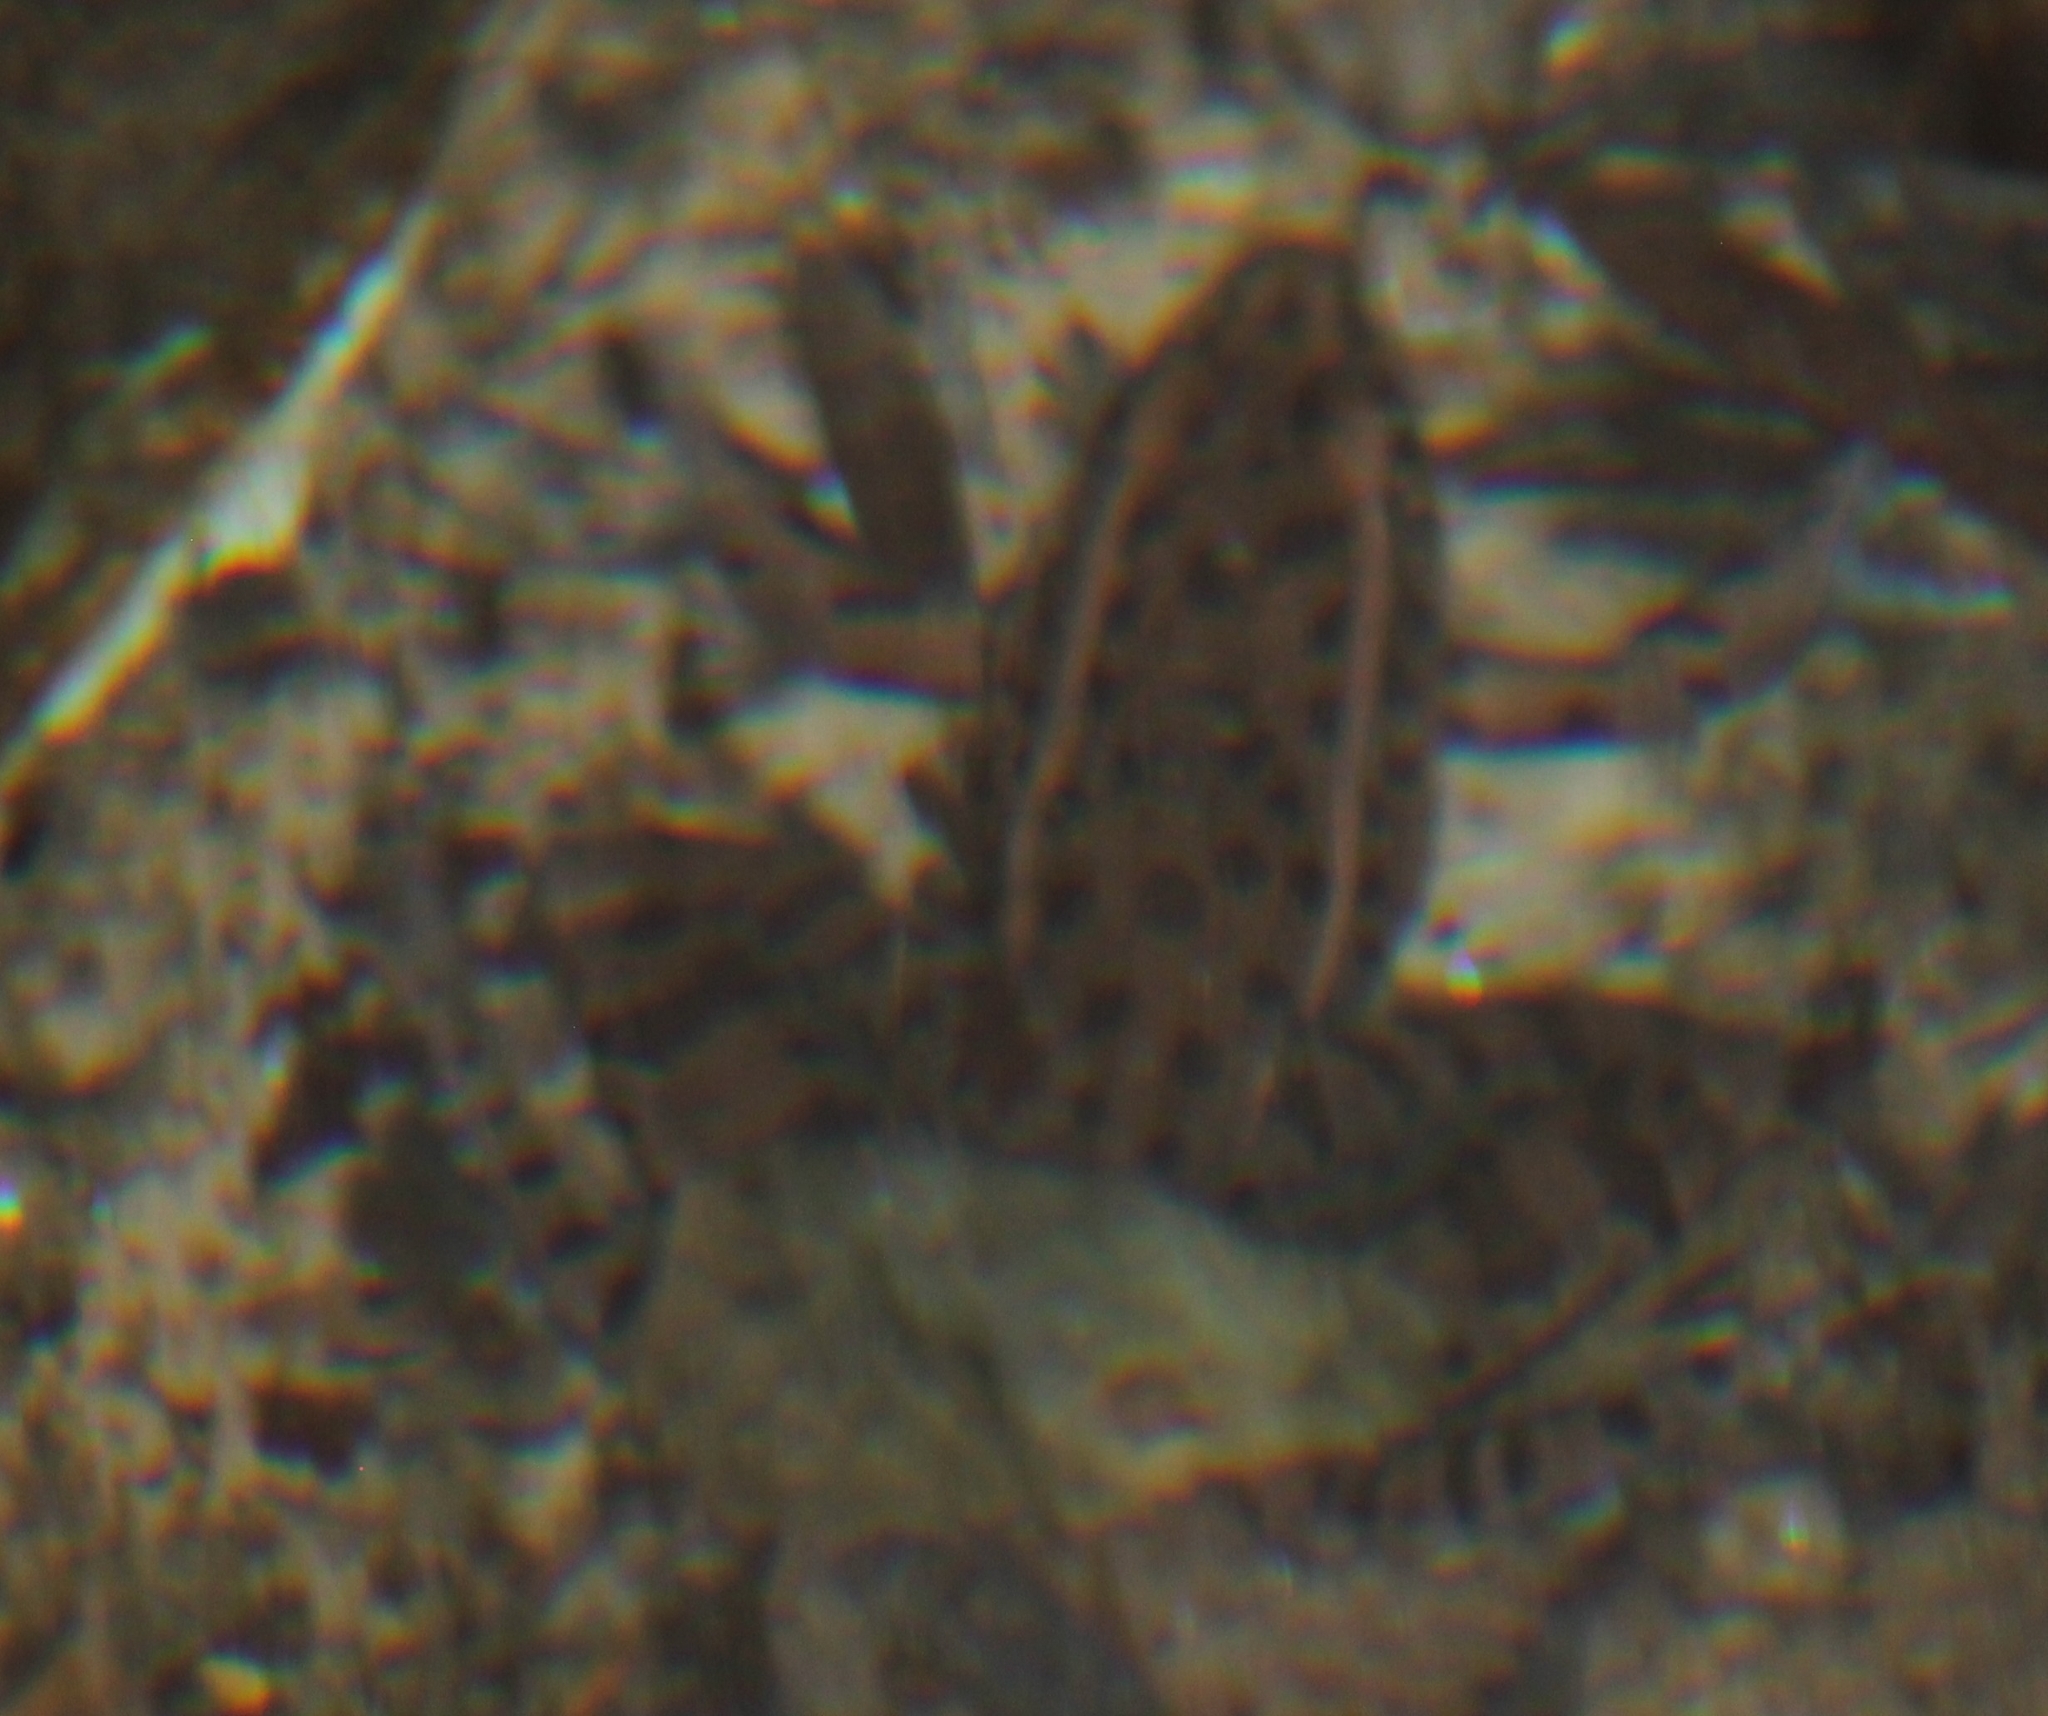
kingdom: Animalia
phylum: Chordata
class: Amphibia
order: Anura
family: Ranidae
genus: Lithobates
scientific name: Lithobates blairi
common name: Plains leopard frog
